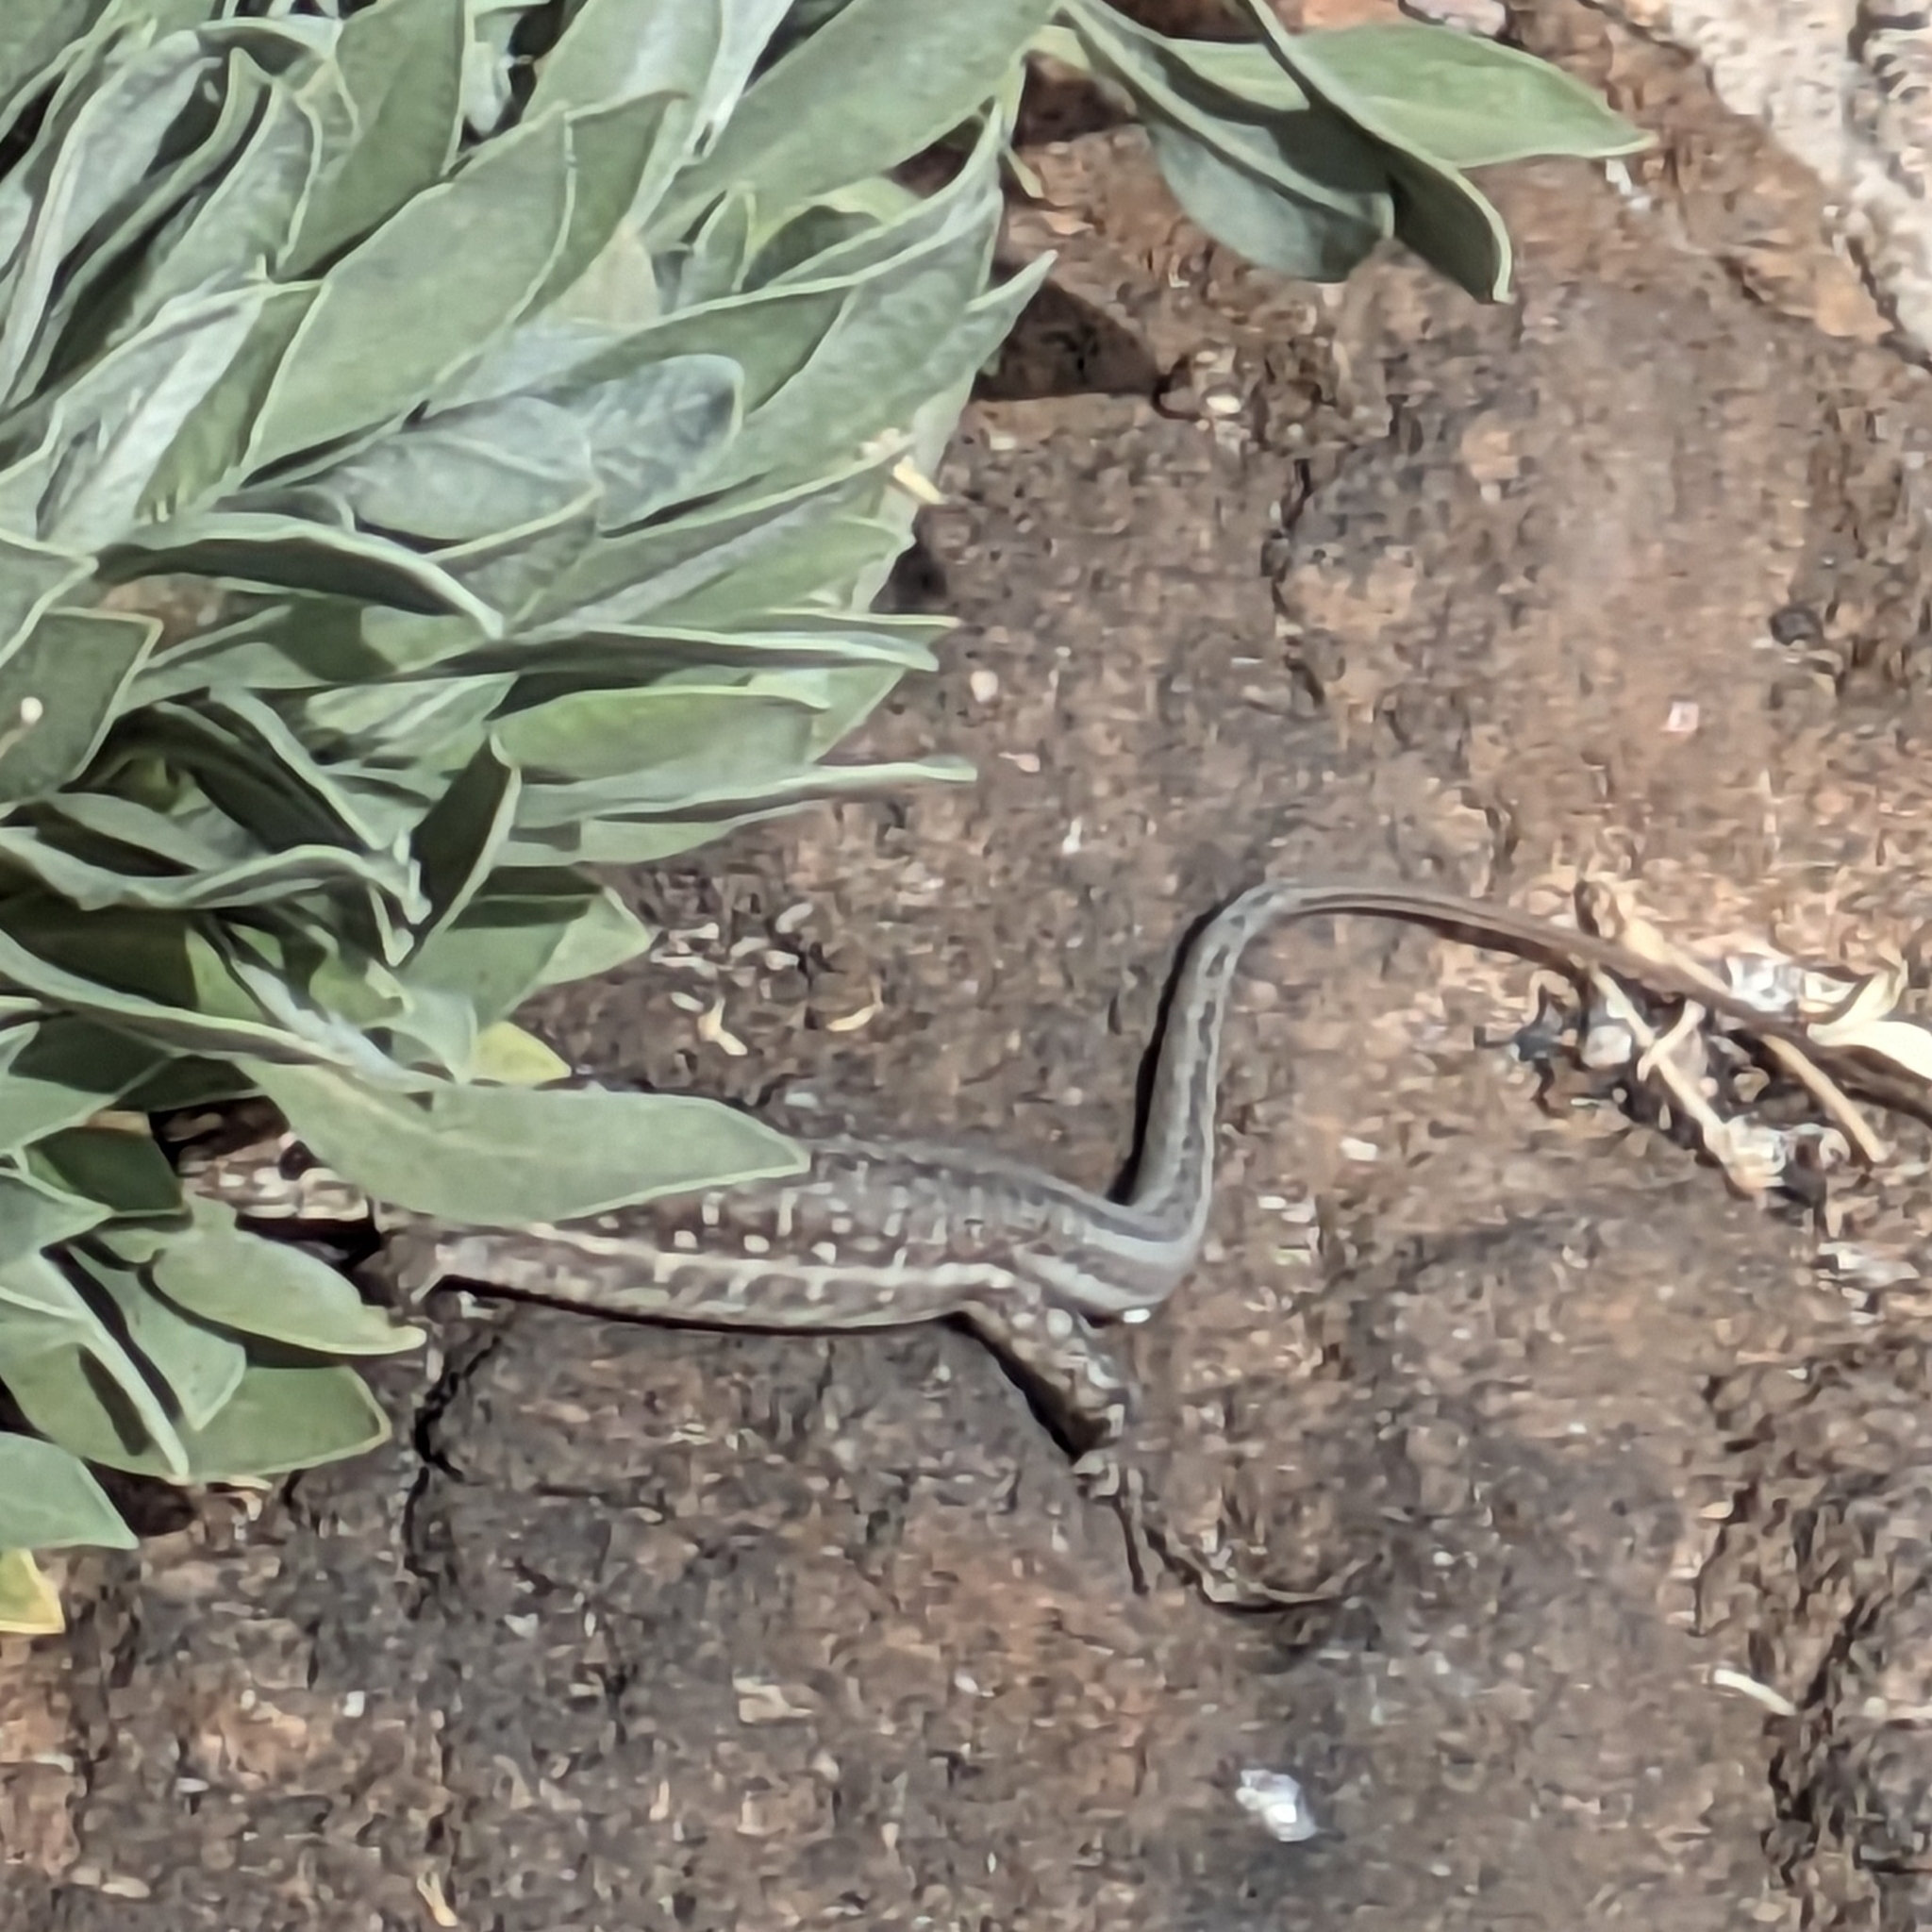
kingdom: Animalia
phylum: Chordata
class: Squamata
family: Lacertidae
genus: Gallotia
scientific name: Gallotia galloti
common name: Gallot's lizard
